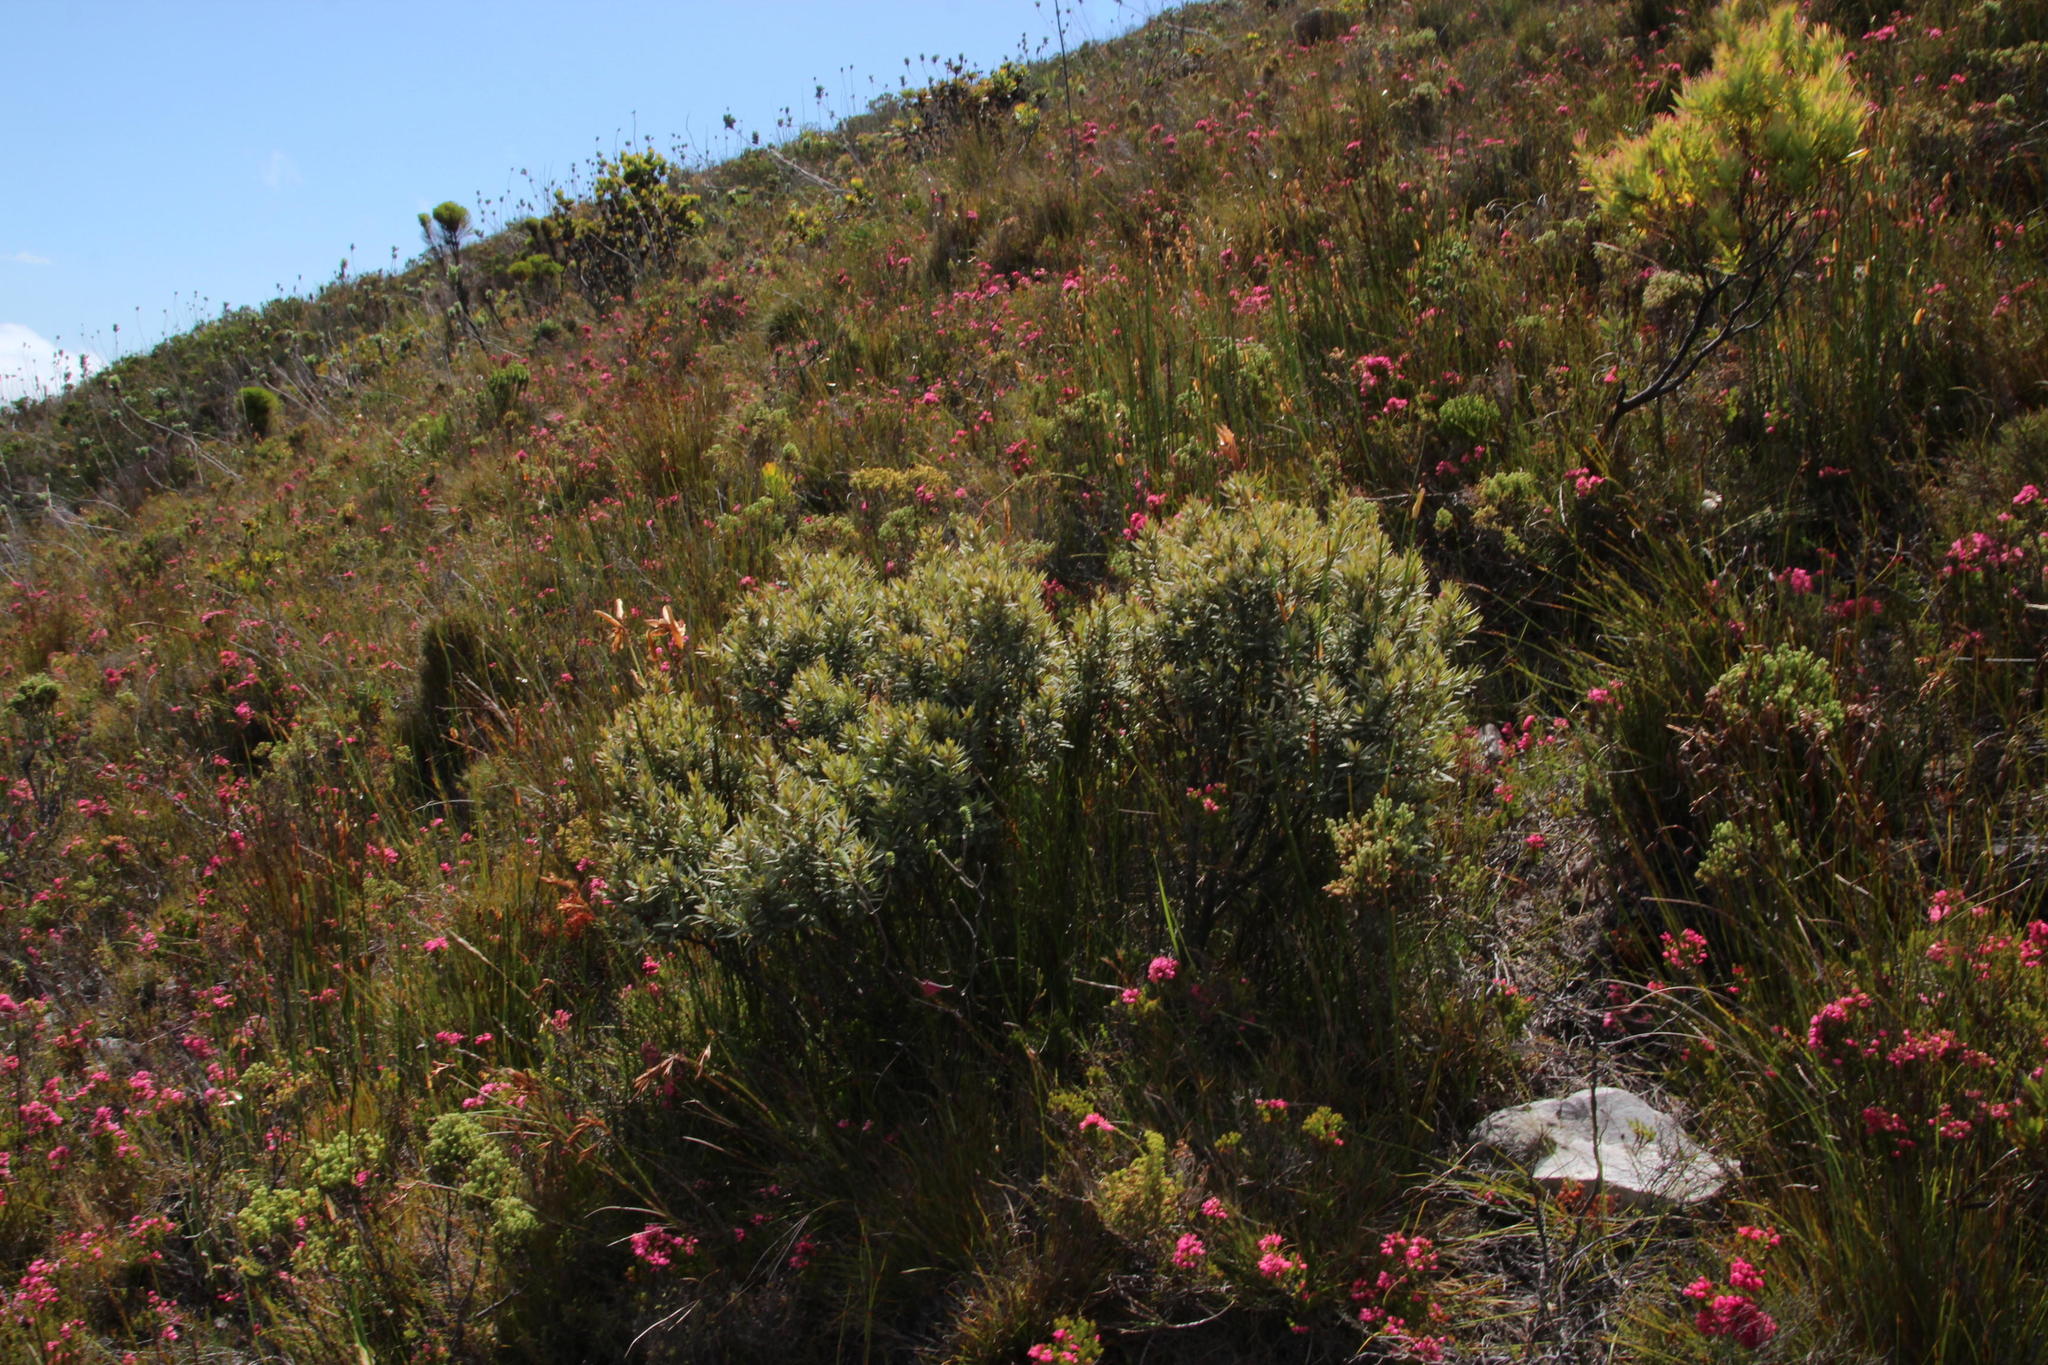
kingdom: Plantae
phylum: Tracheophyta
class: Magnoliopsida
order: Cornales
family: Grubbiaceae
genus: Grubbia
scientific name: Grubbia tomentosa
